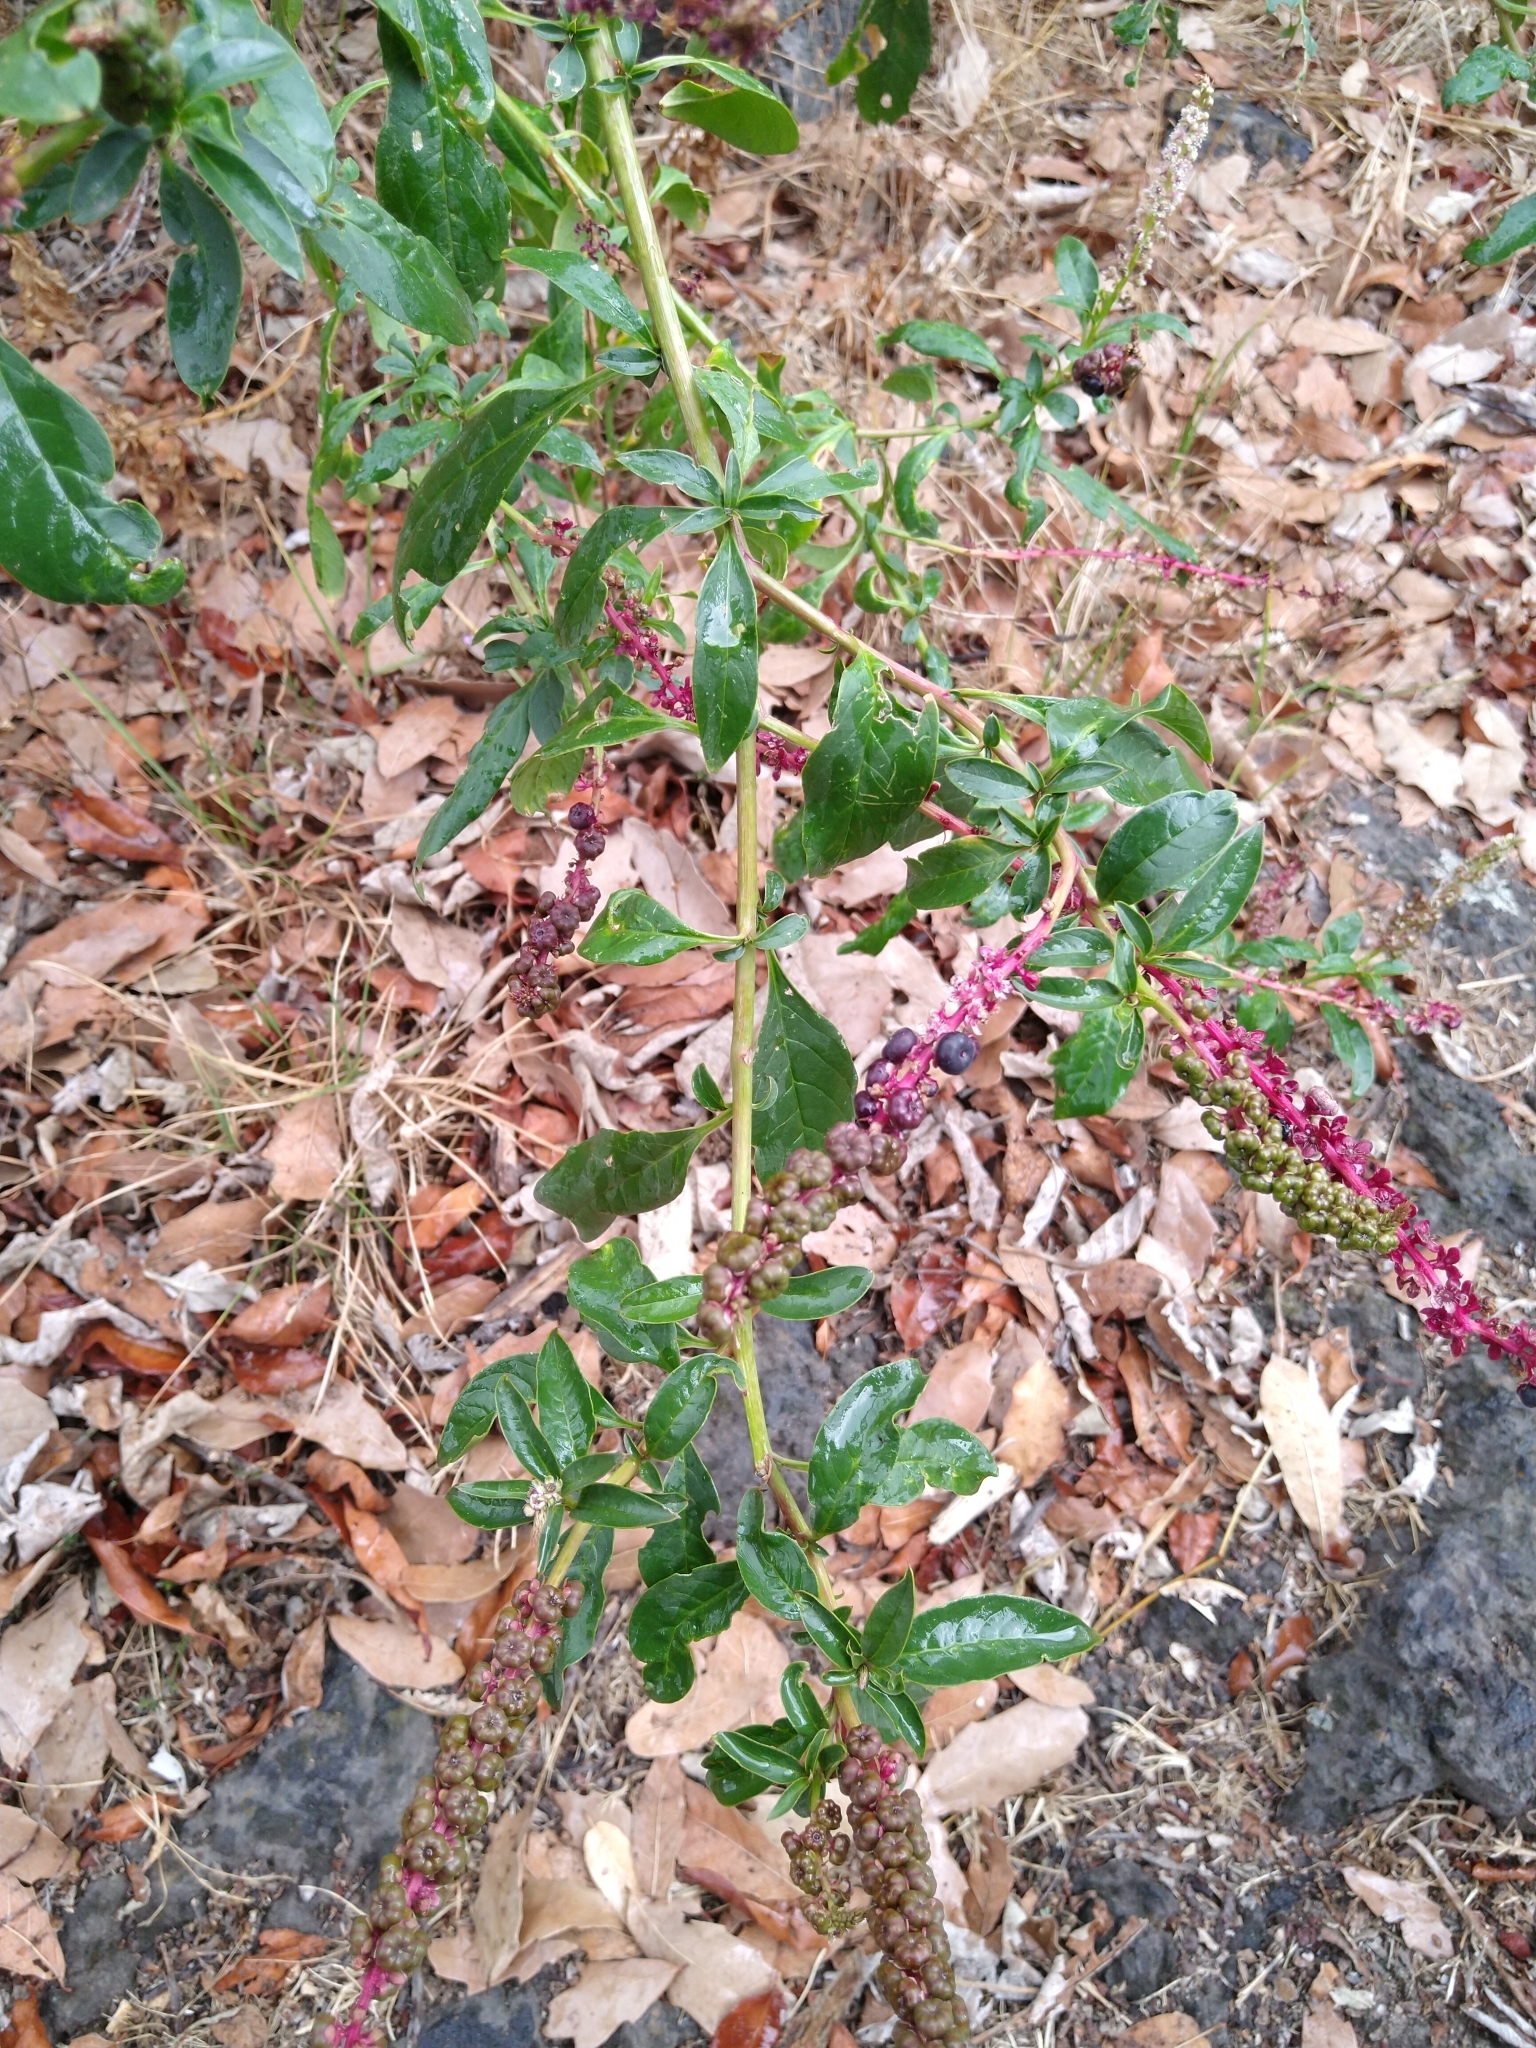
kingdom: Plantae
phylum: Tracheophyta
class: Magnoliopsida
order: Caryophyllales
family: Phytolaccaceae
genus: Phytolacca
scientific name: Phytolacca icosandra
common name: Button pokeweed
